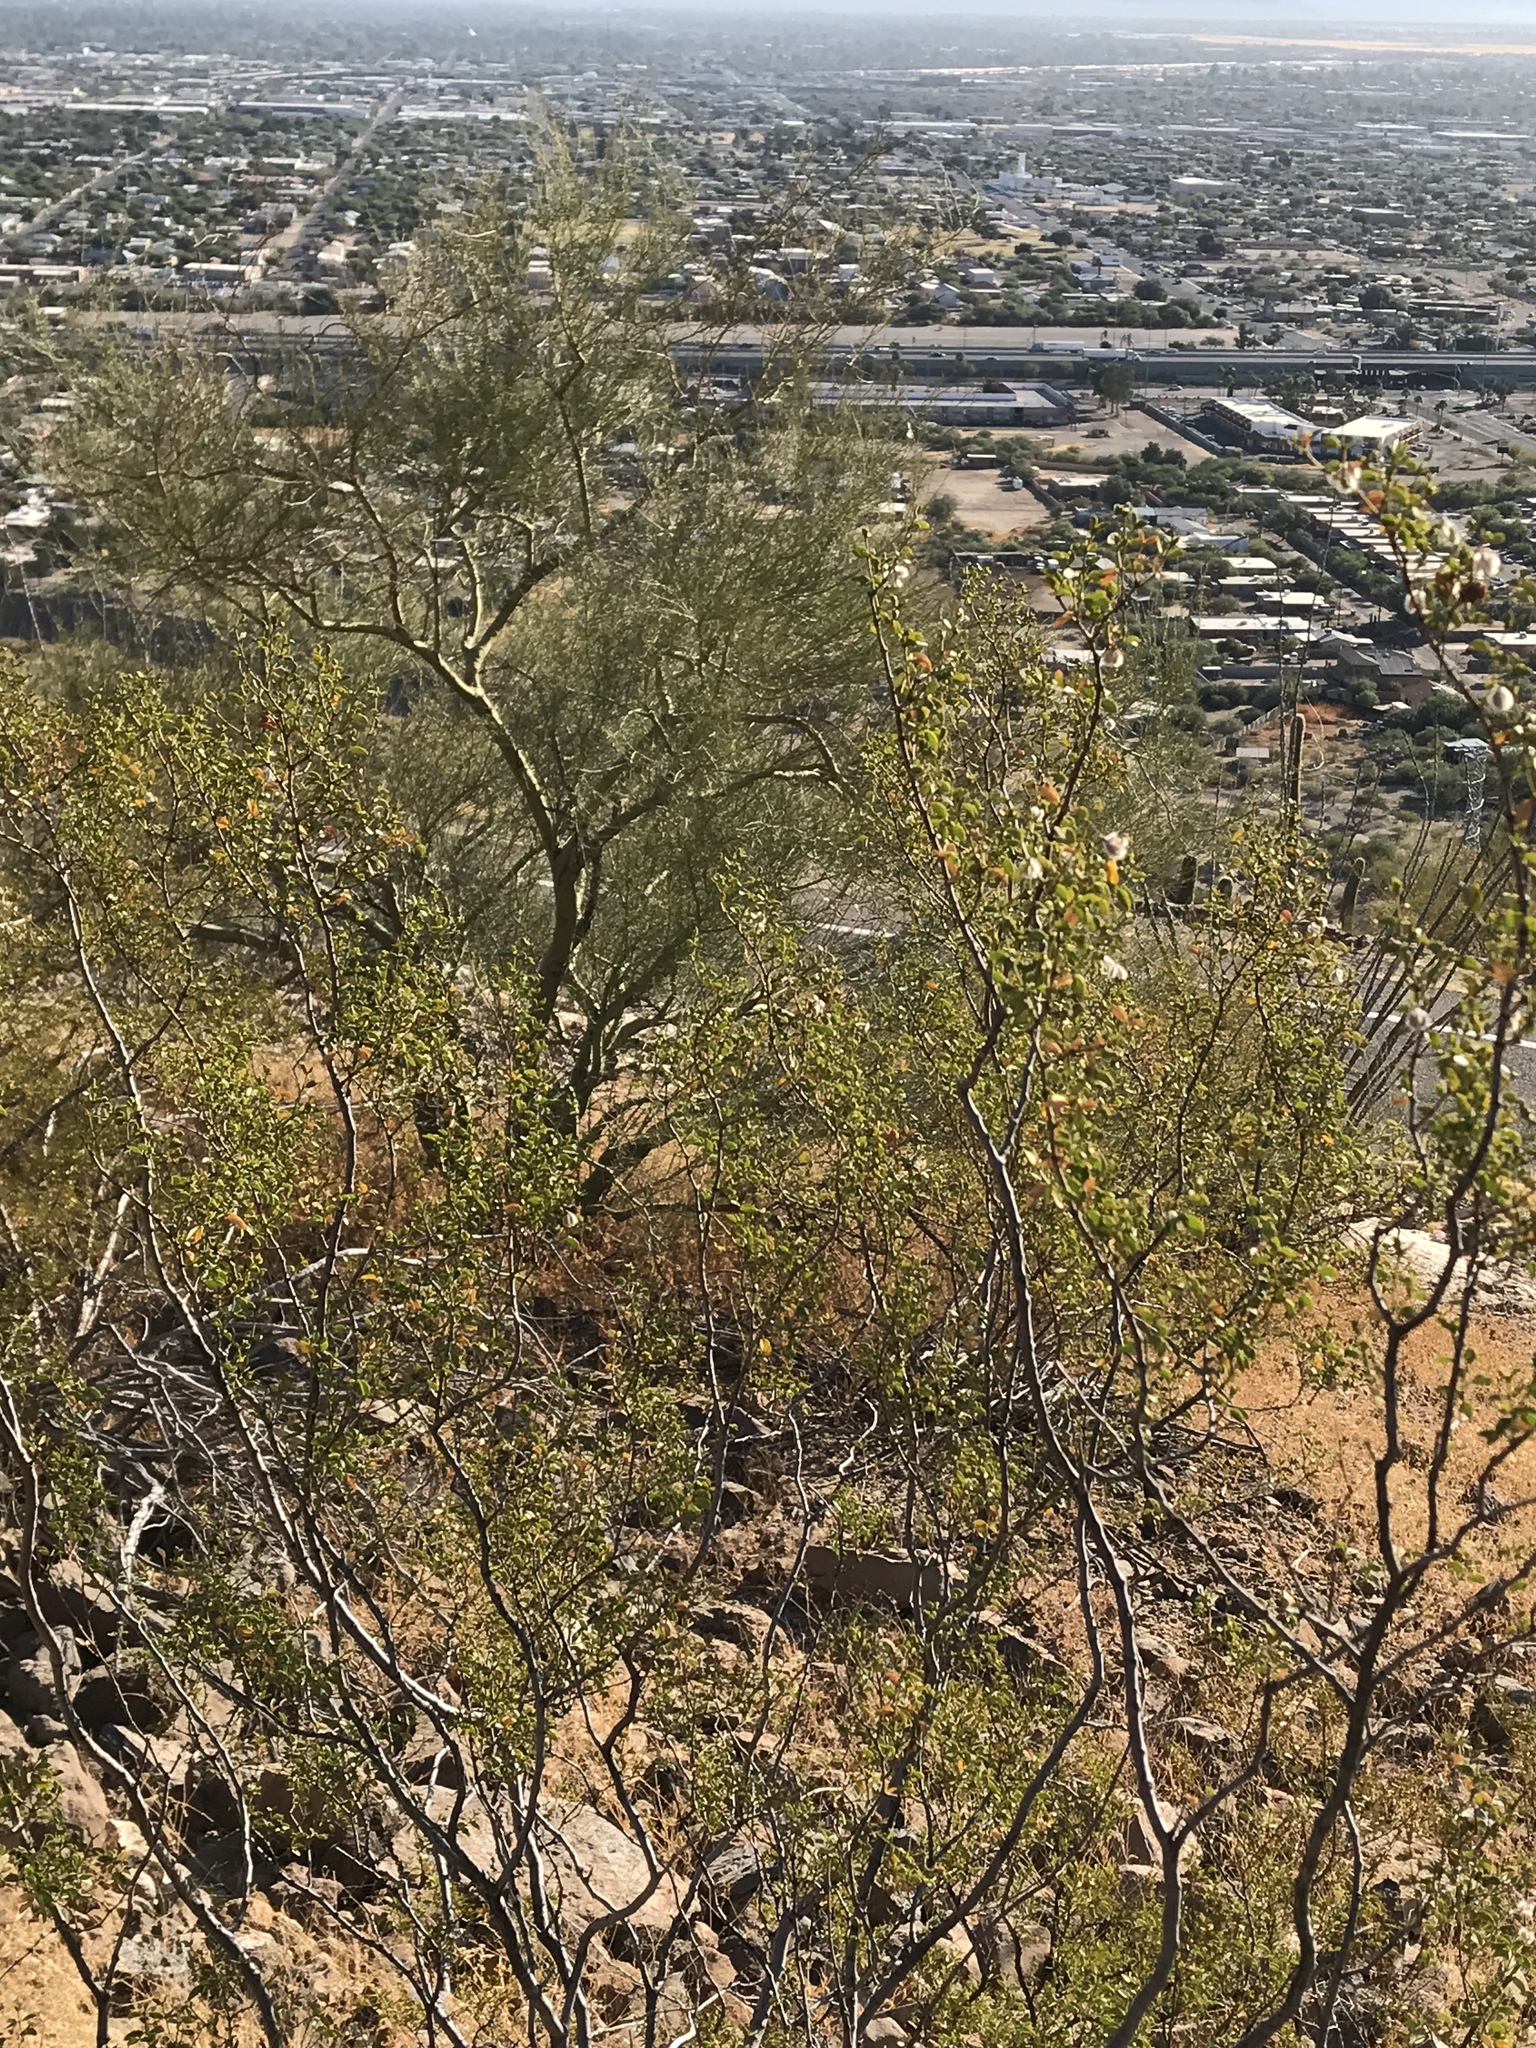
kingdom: Plantae
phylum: Tracheophyta
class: Magnoliopsida
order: Zygophyllales
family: Zygophyllaceae
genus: Larrea
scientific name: Larrea tridentata
